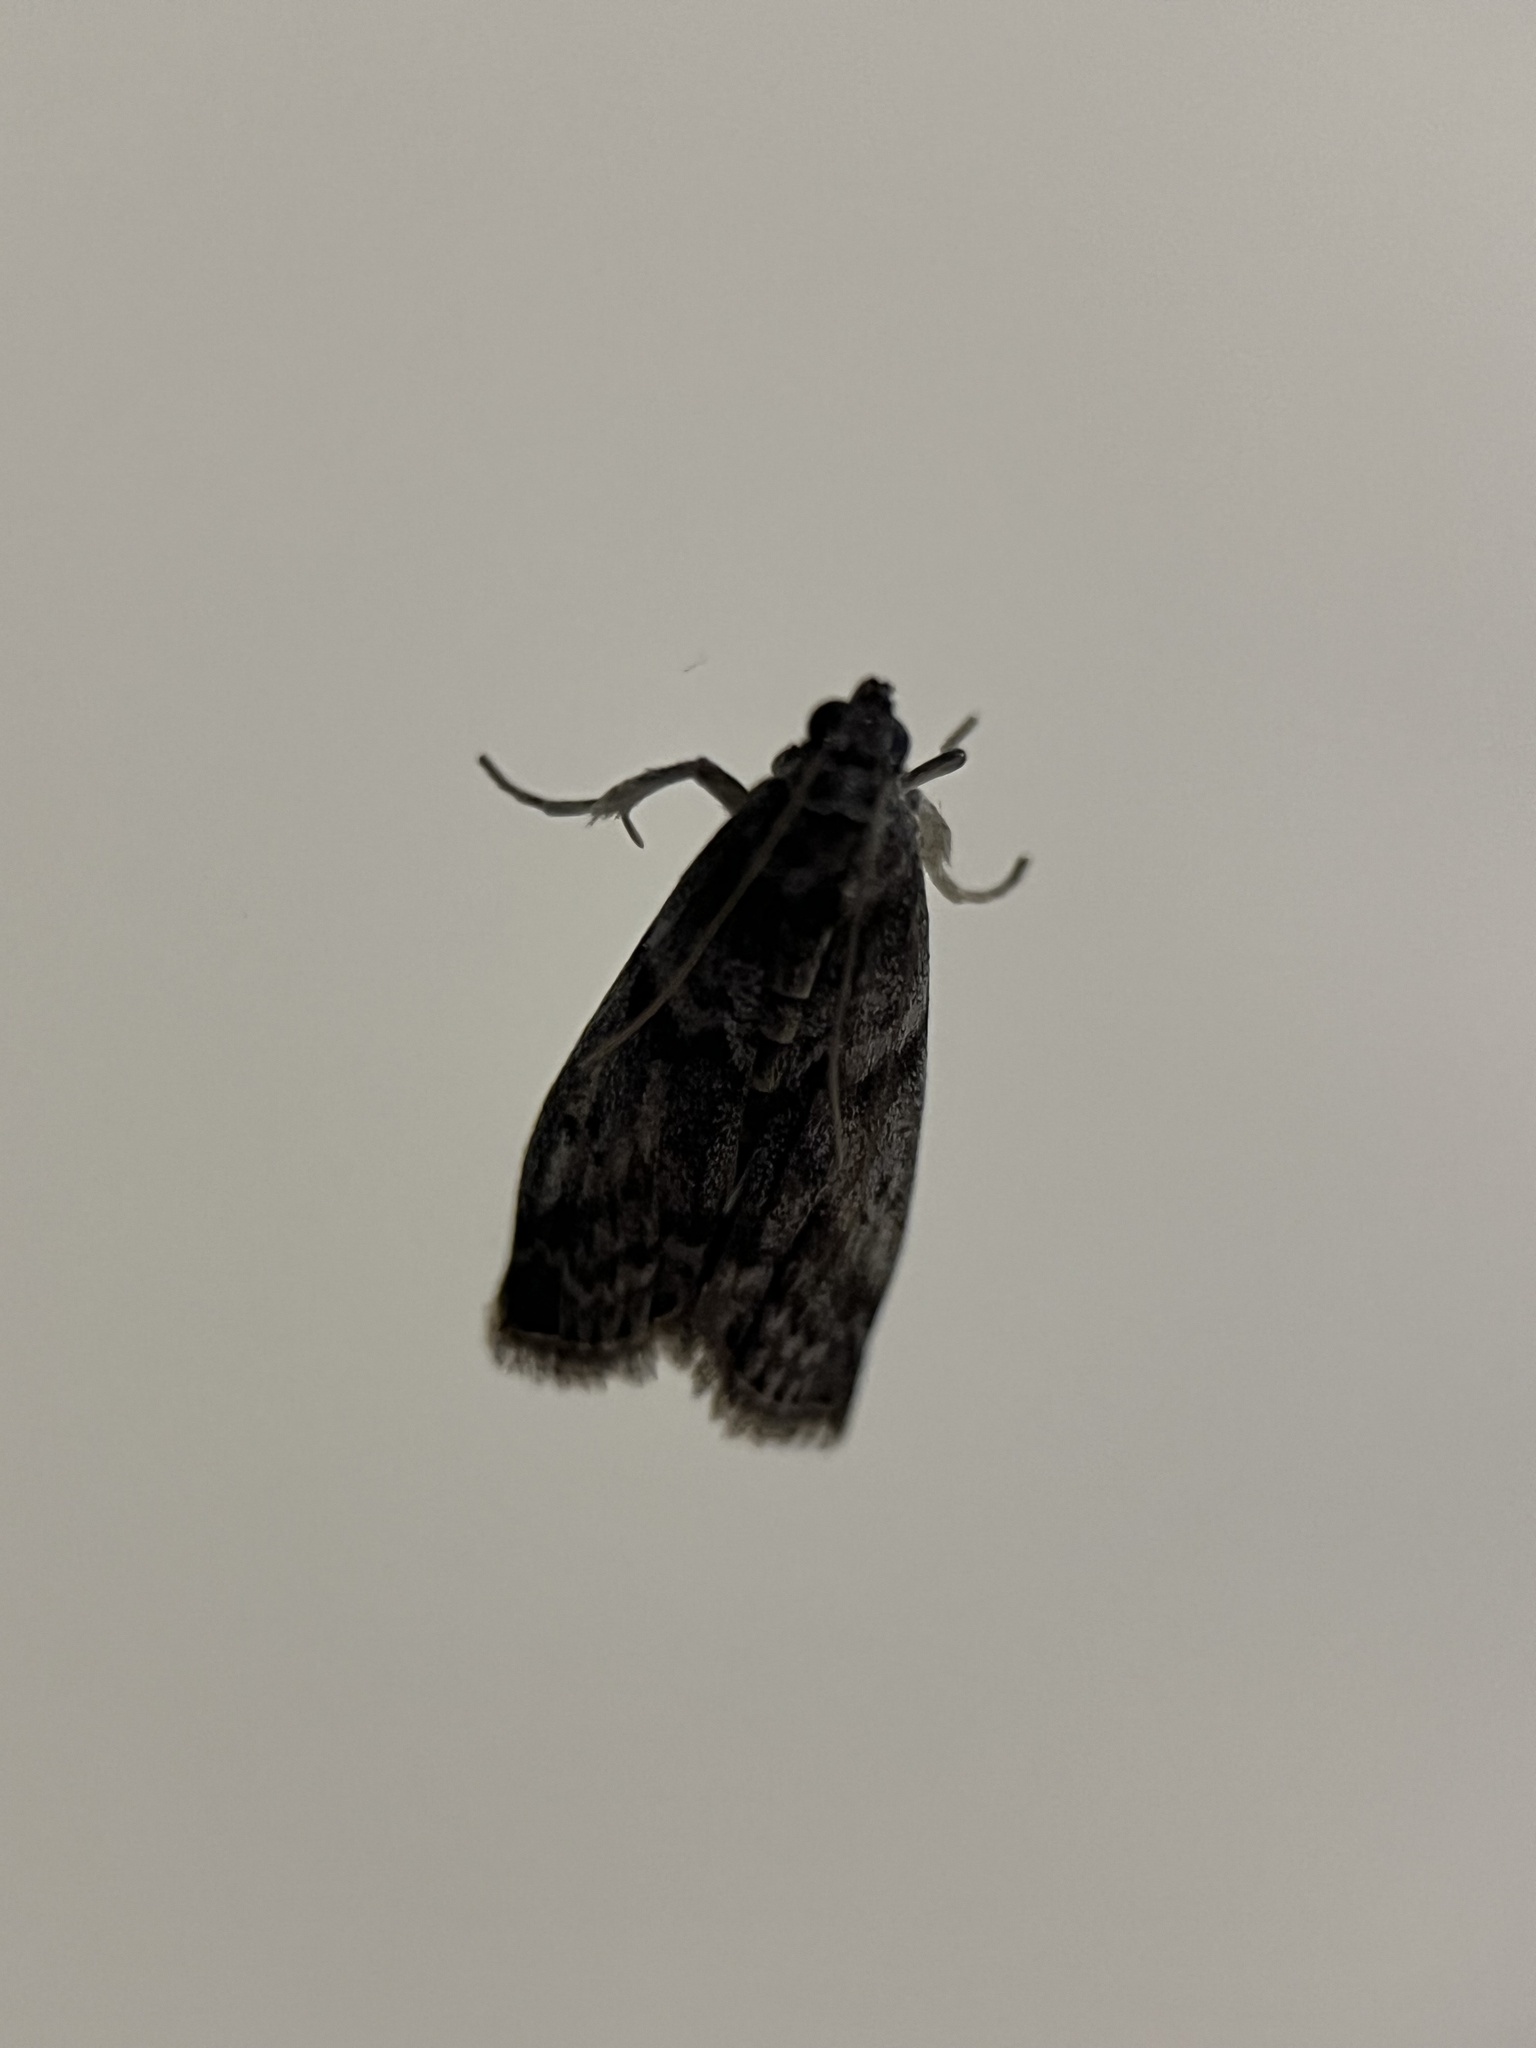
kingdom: Animalia
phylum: Arthropoda
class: Insecta
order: Lepidoptera
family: Pyralidae
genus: Ectomyelois
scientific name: Ectomyelois ceratoniae
